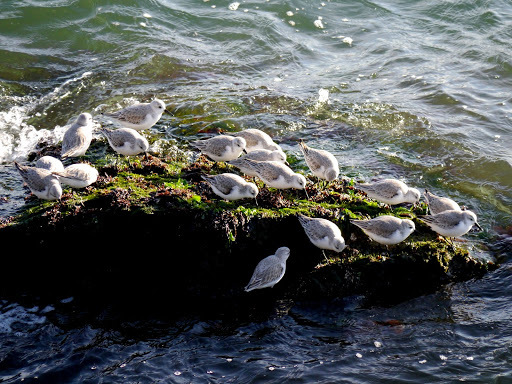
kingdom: Animalia
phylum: Chordata
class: Aves
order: Charadriiformes
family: Scolopacidae
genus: Calidris
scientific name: Calidris alba
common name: Sanderling
